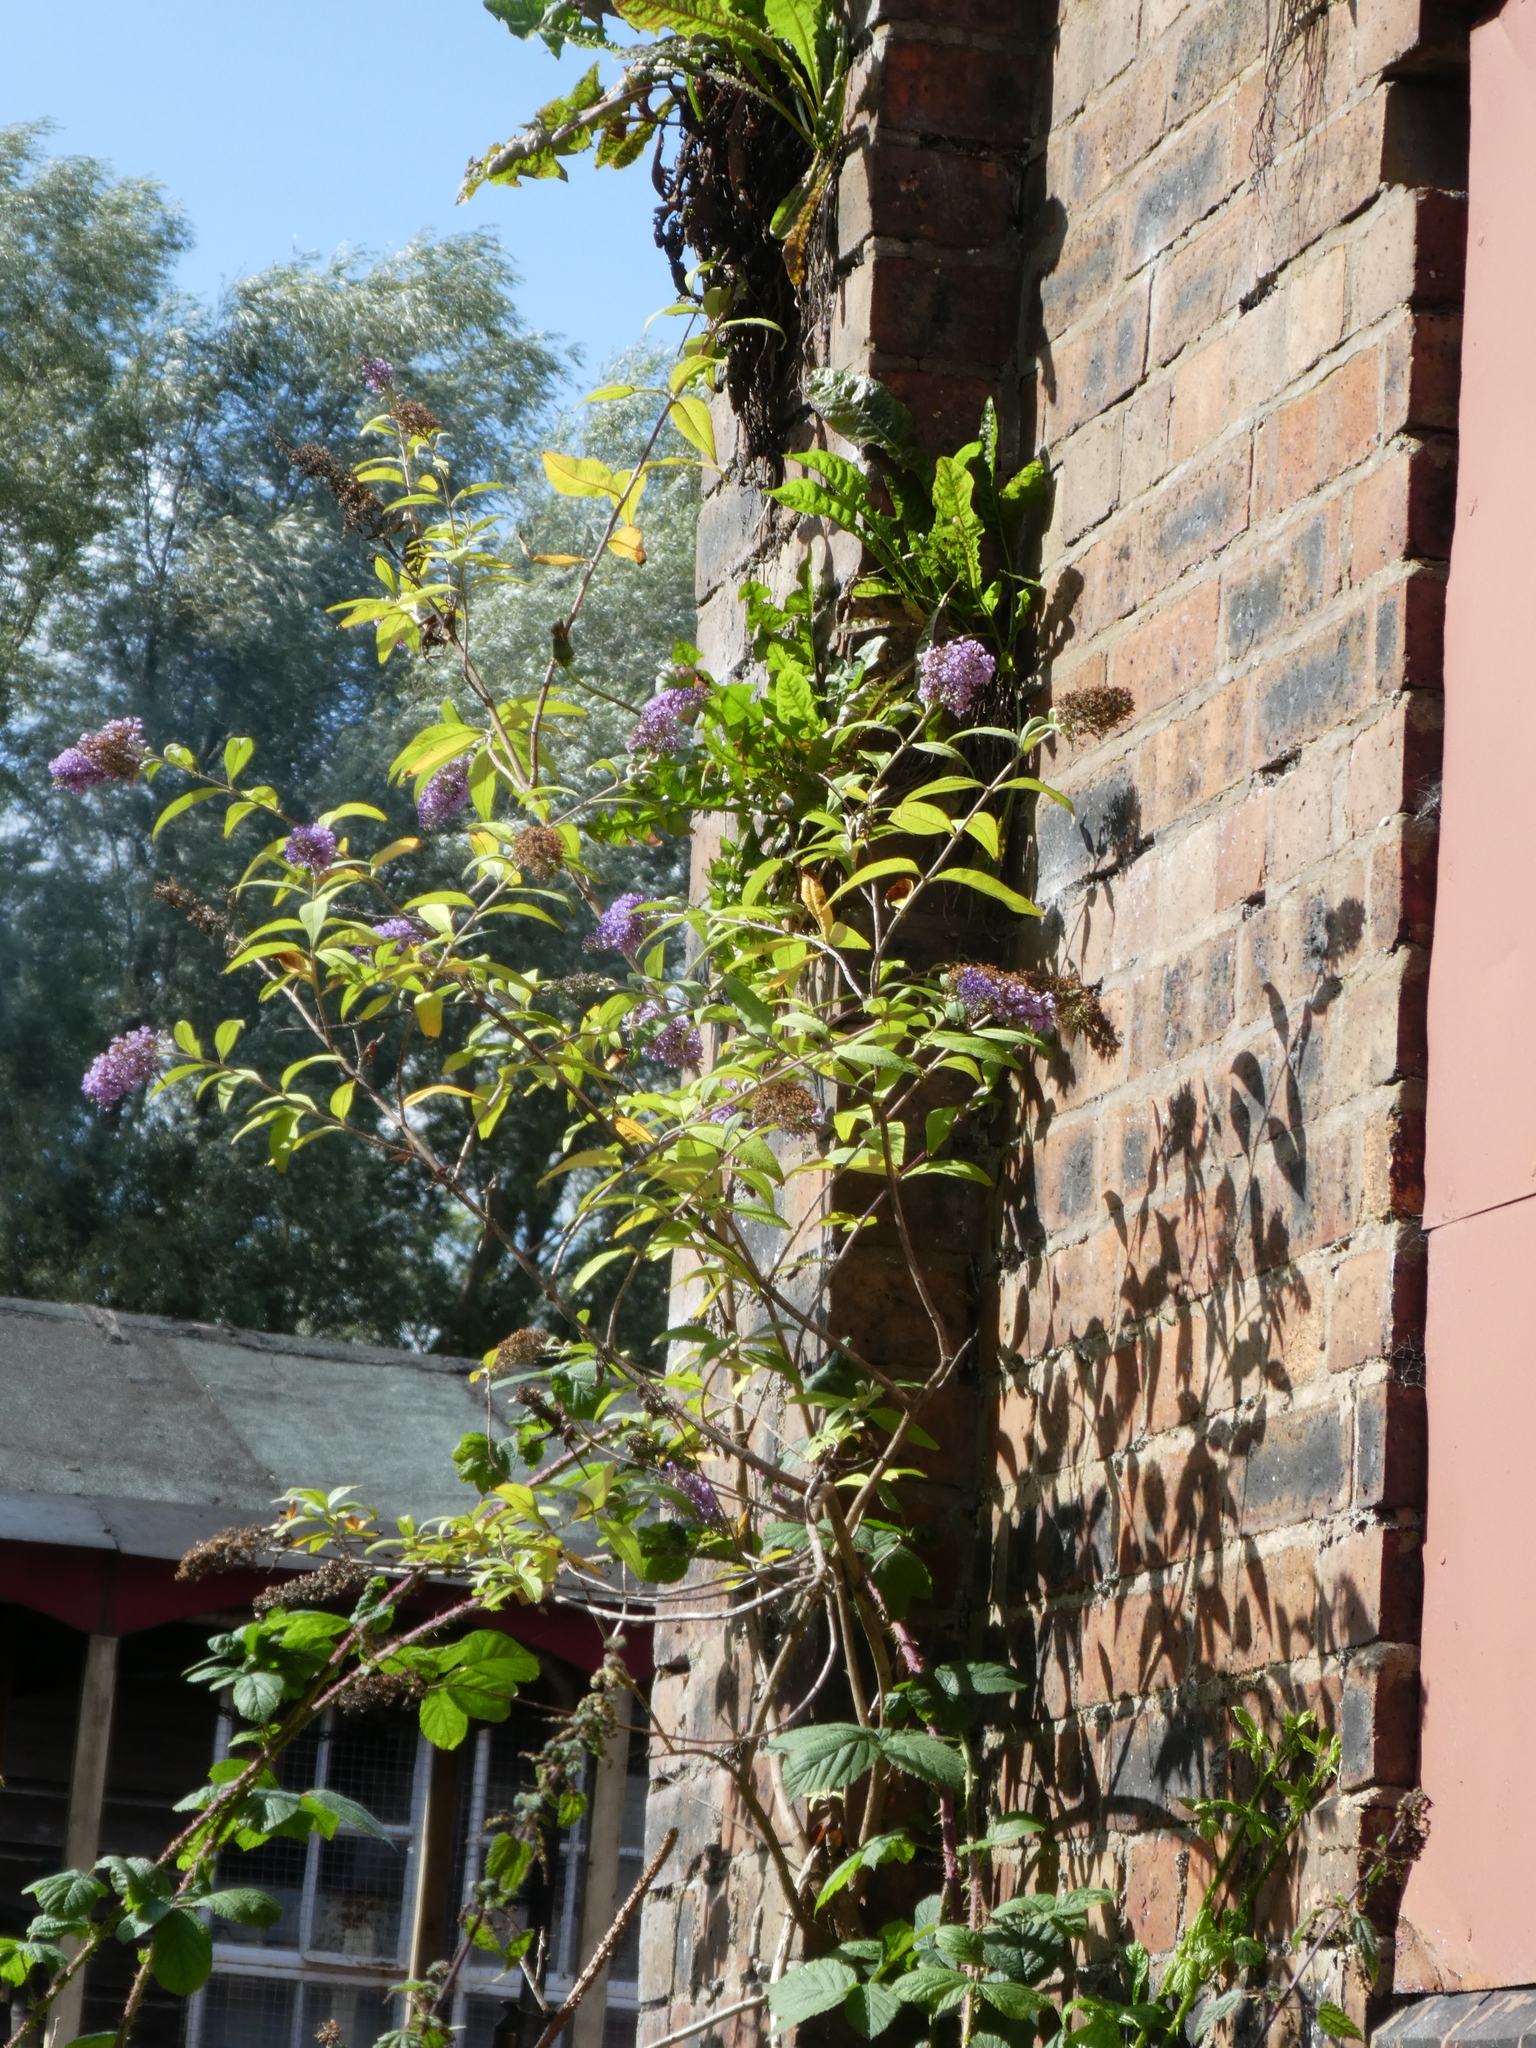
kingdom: Plantae
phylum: Tracheophyta
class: Magnoliopsida
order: Lamiales
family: Scrophulariaceae
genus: Buddleja
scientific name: Buddleja davidii
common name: Butterfly-bush
